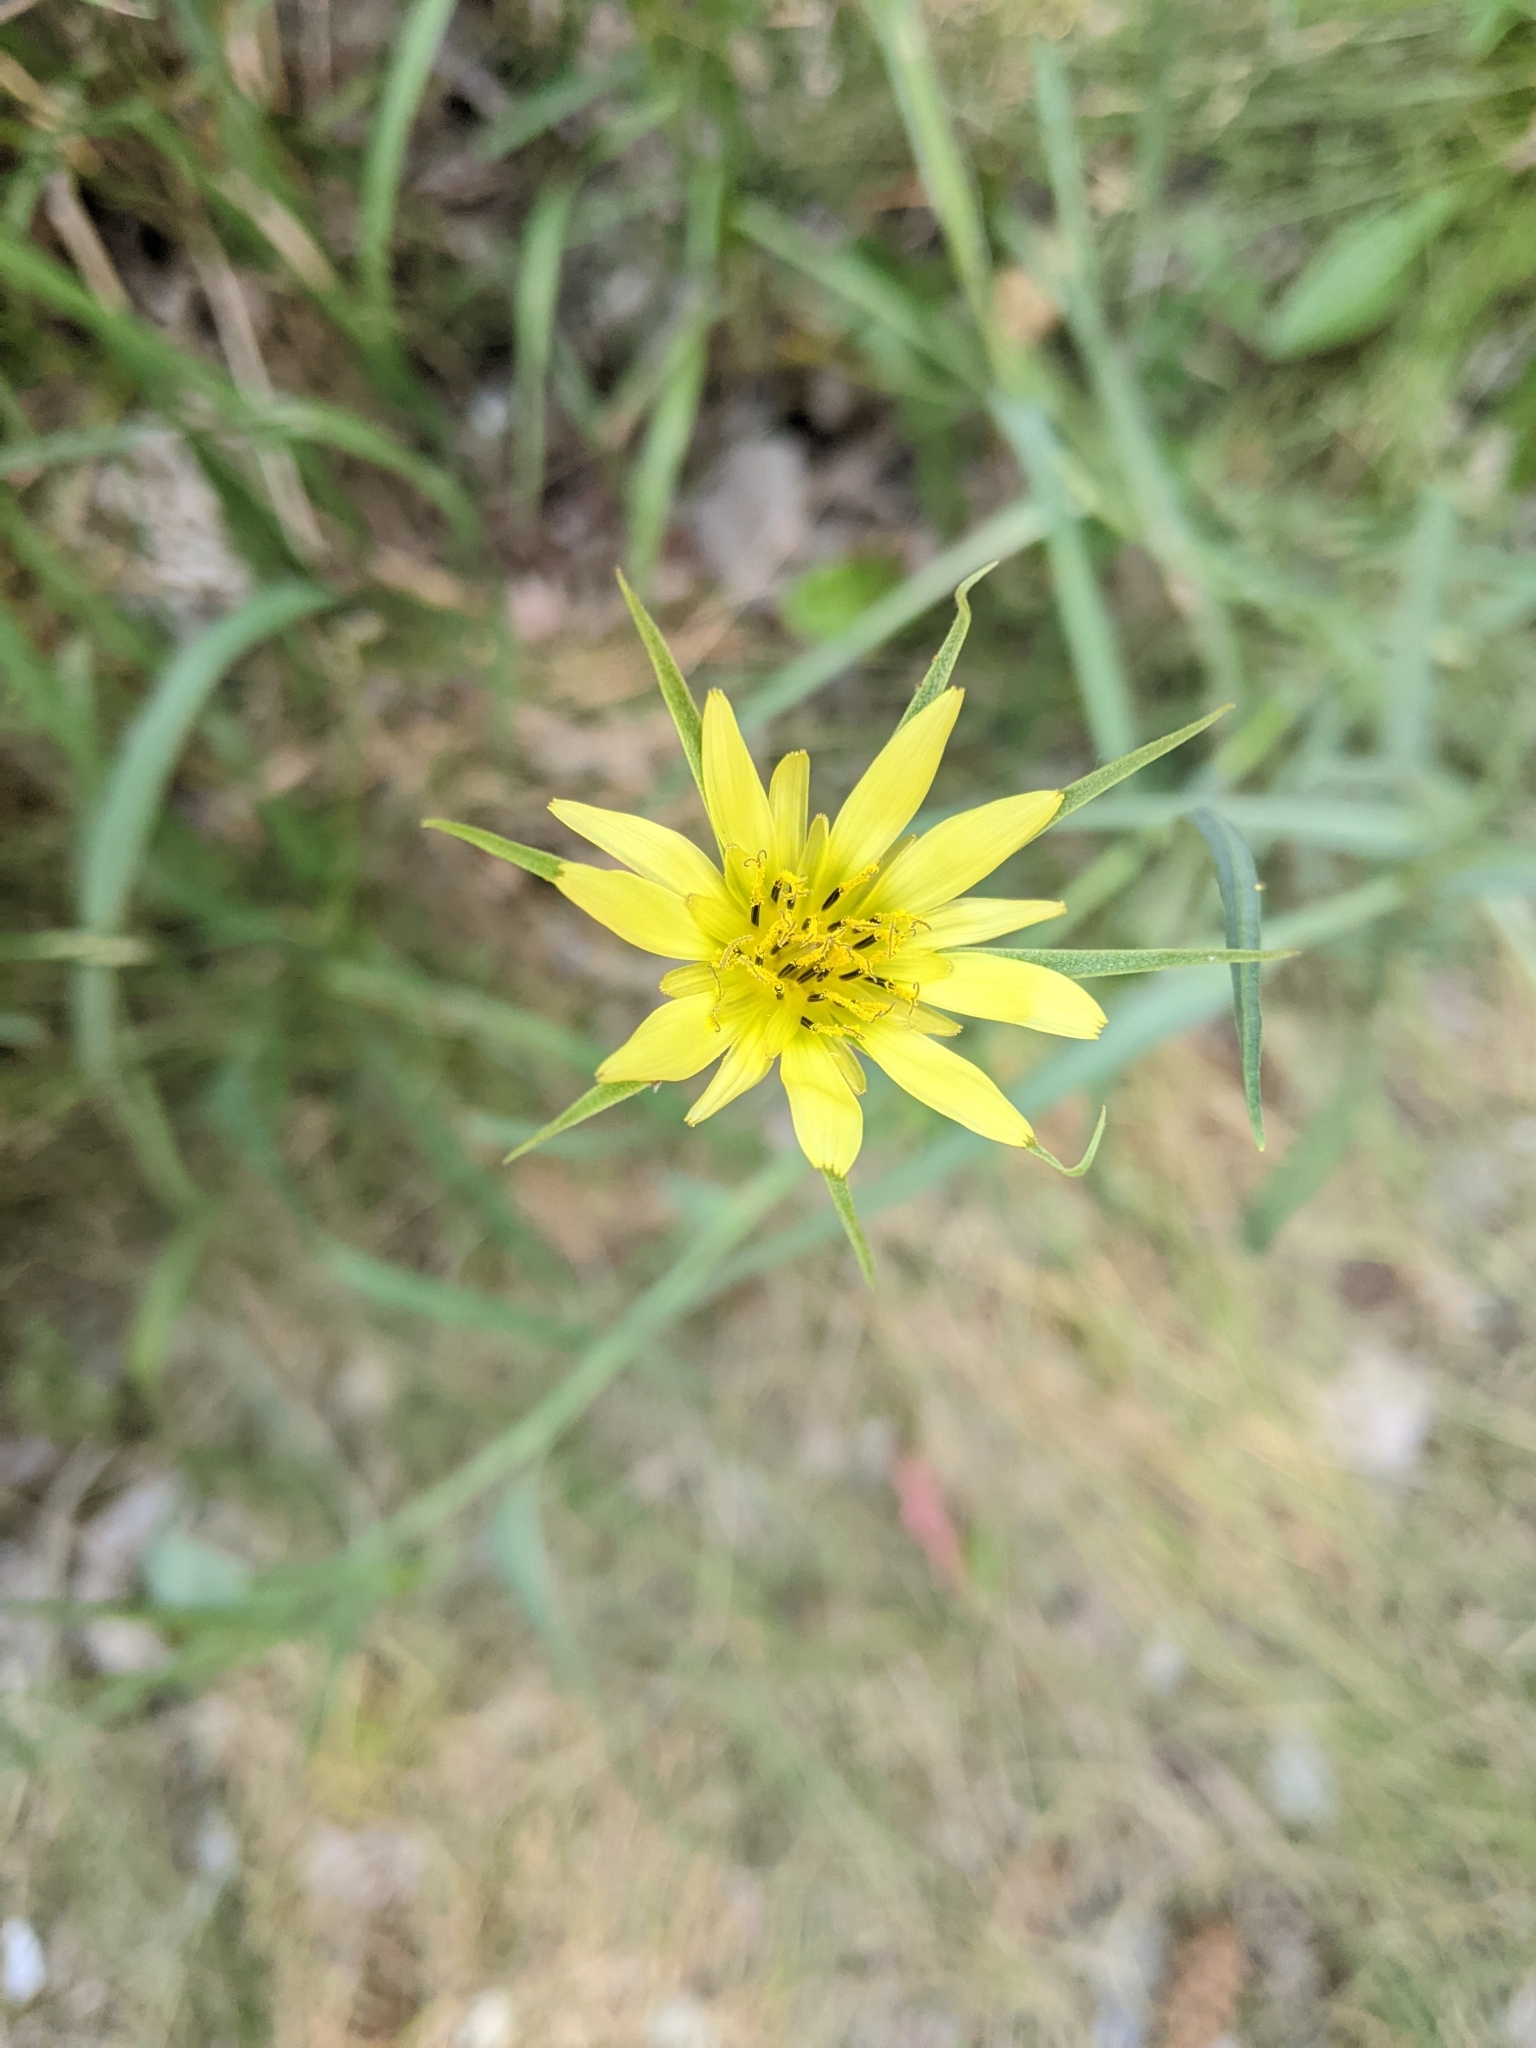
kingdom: Plantae
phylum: Tracheophyta
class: Magnoliopsida
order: Asterales
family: Asteraceae
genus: Tragopogon
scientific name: Tragopogon dubius
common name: Yellow salsify
